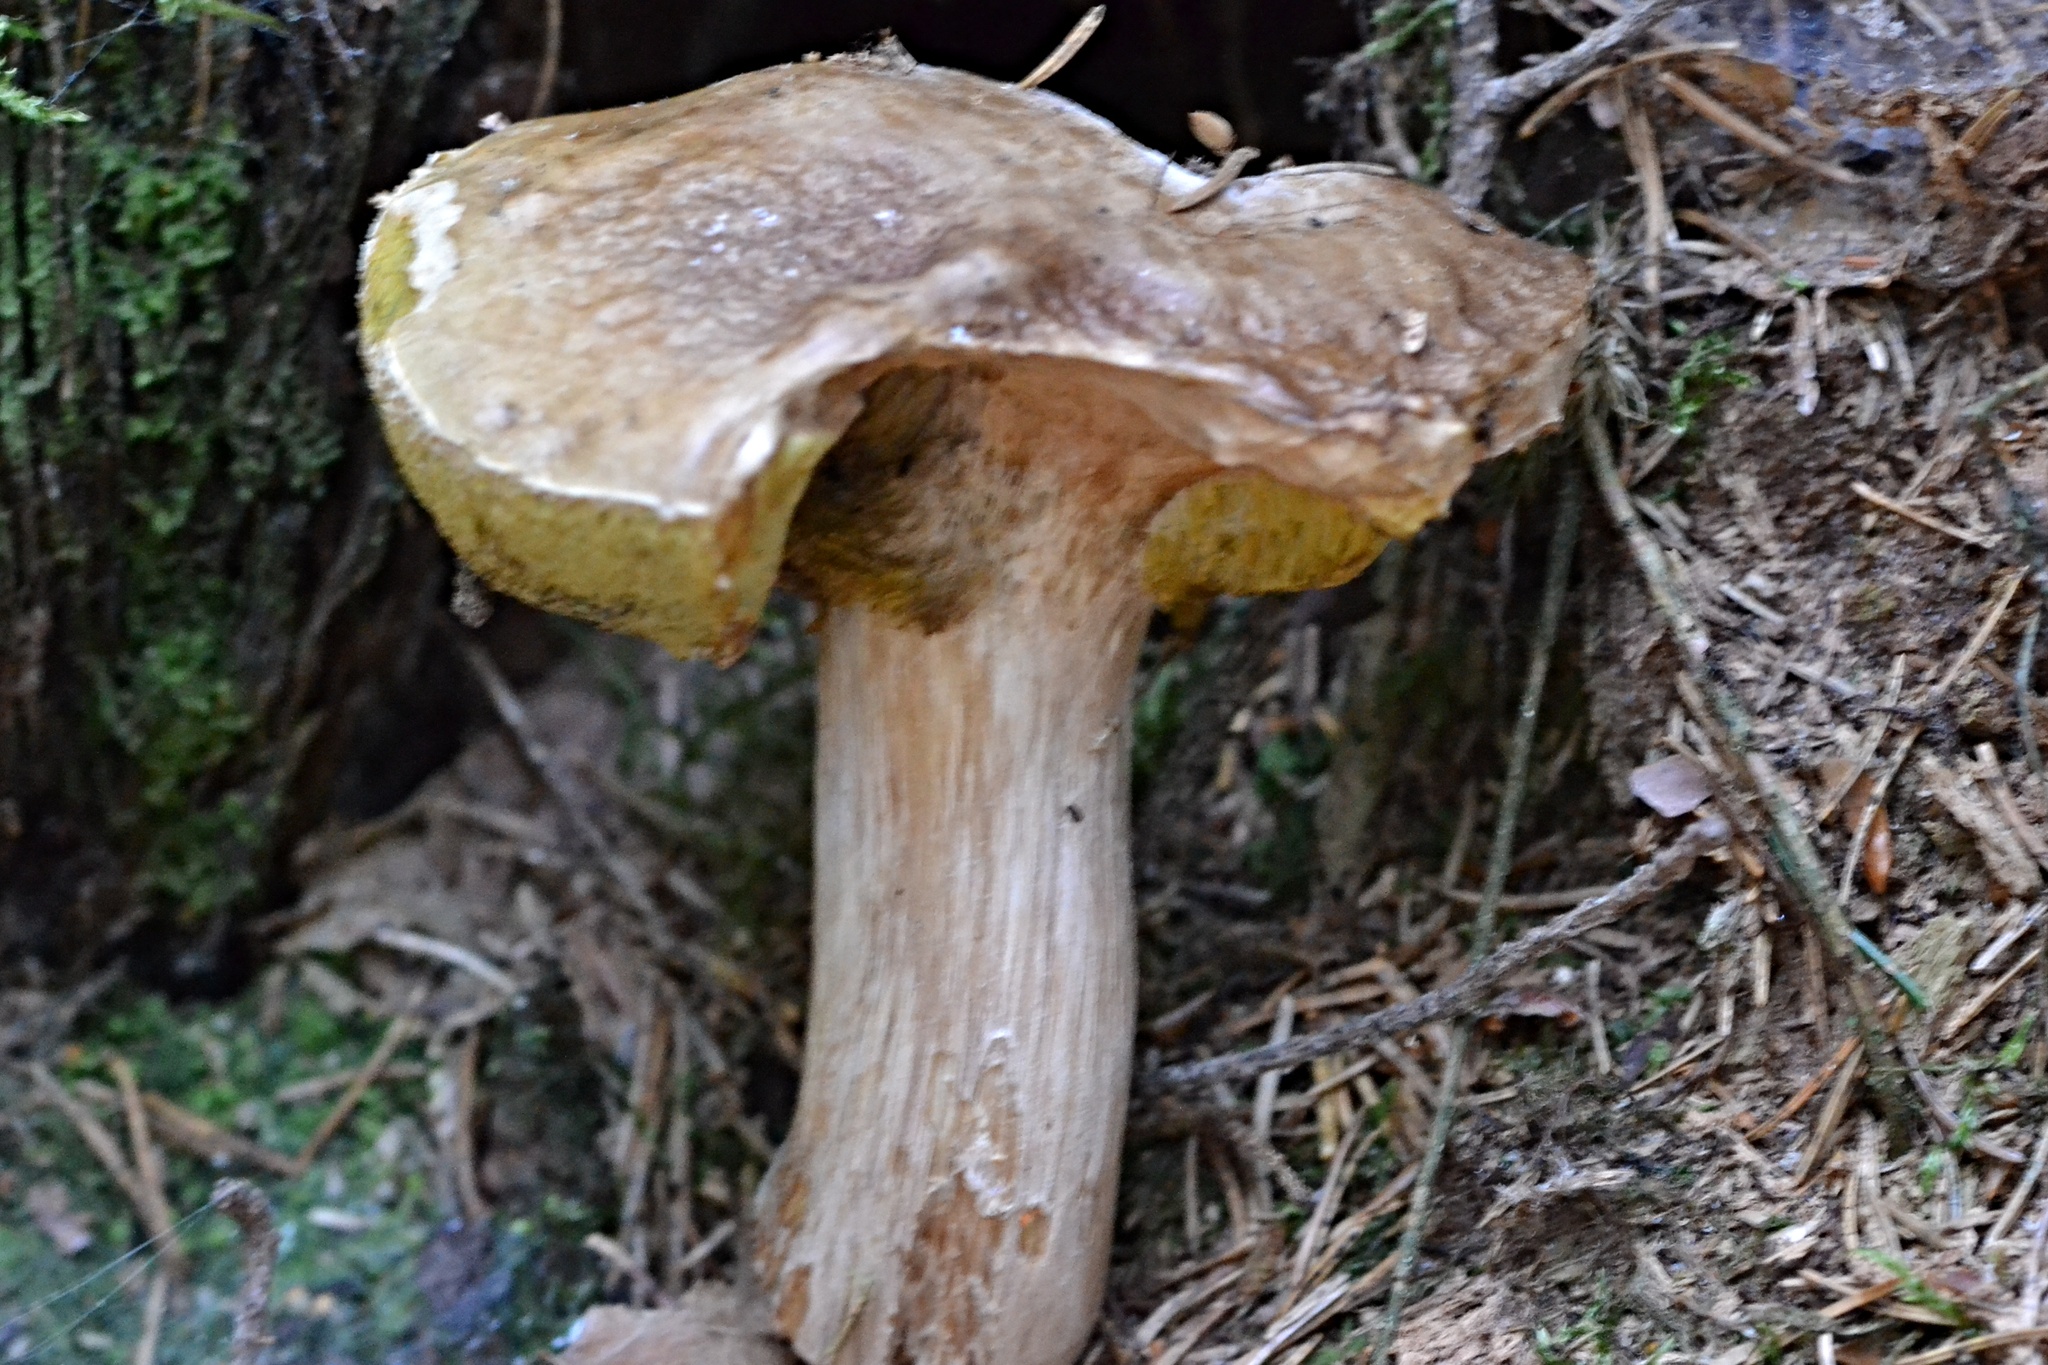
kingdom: Fungi
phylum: Basidiomycota
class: Agaricomycetes
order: Boletales
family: Boletaceae
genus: Boletus
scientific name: Boletus edulis
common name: Cep
